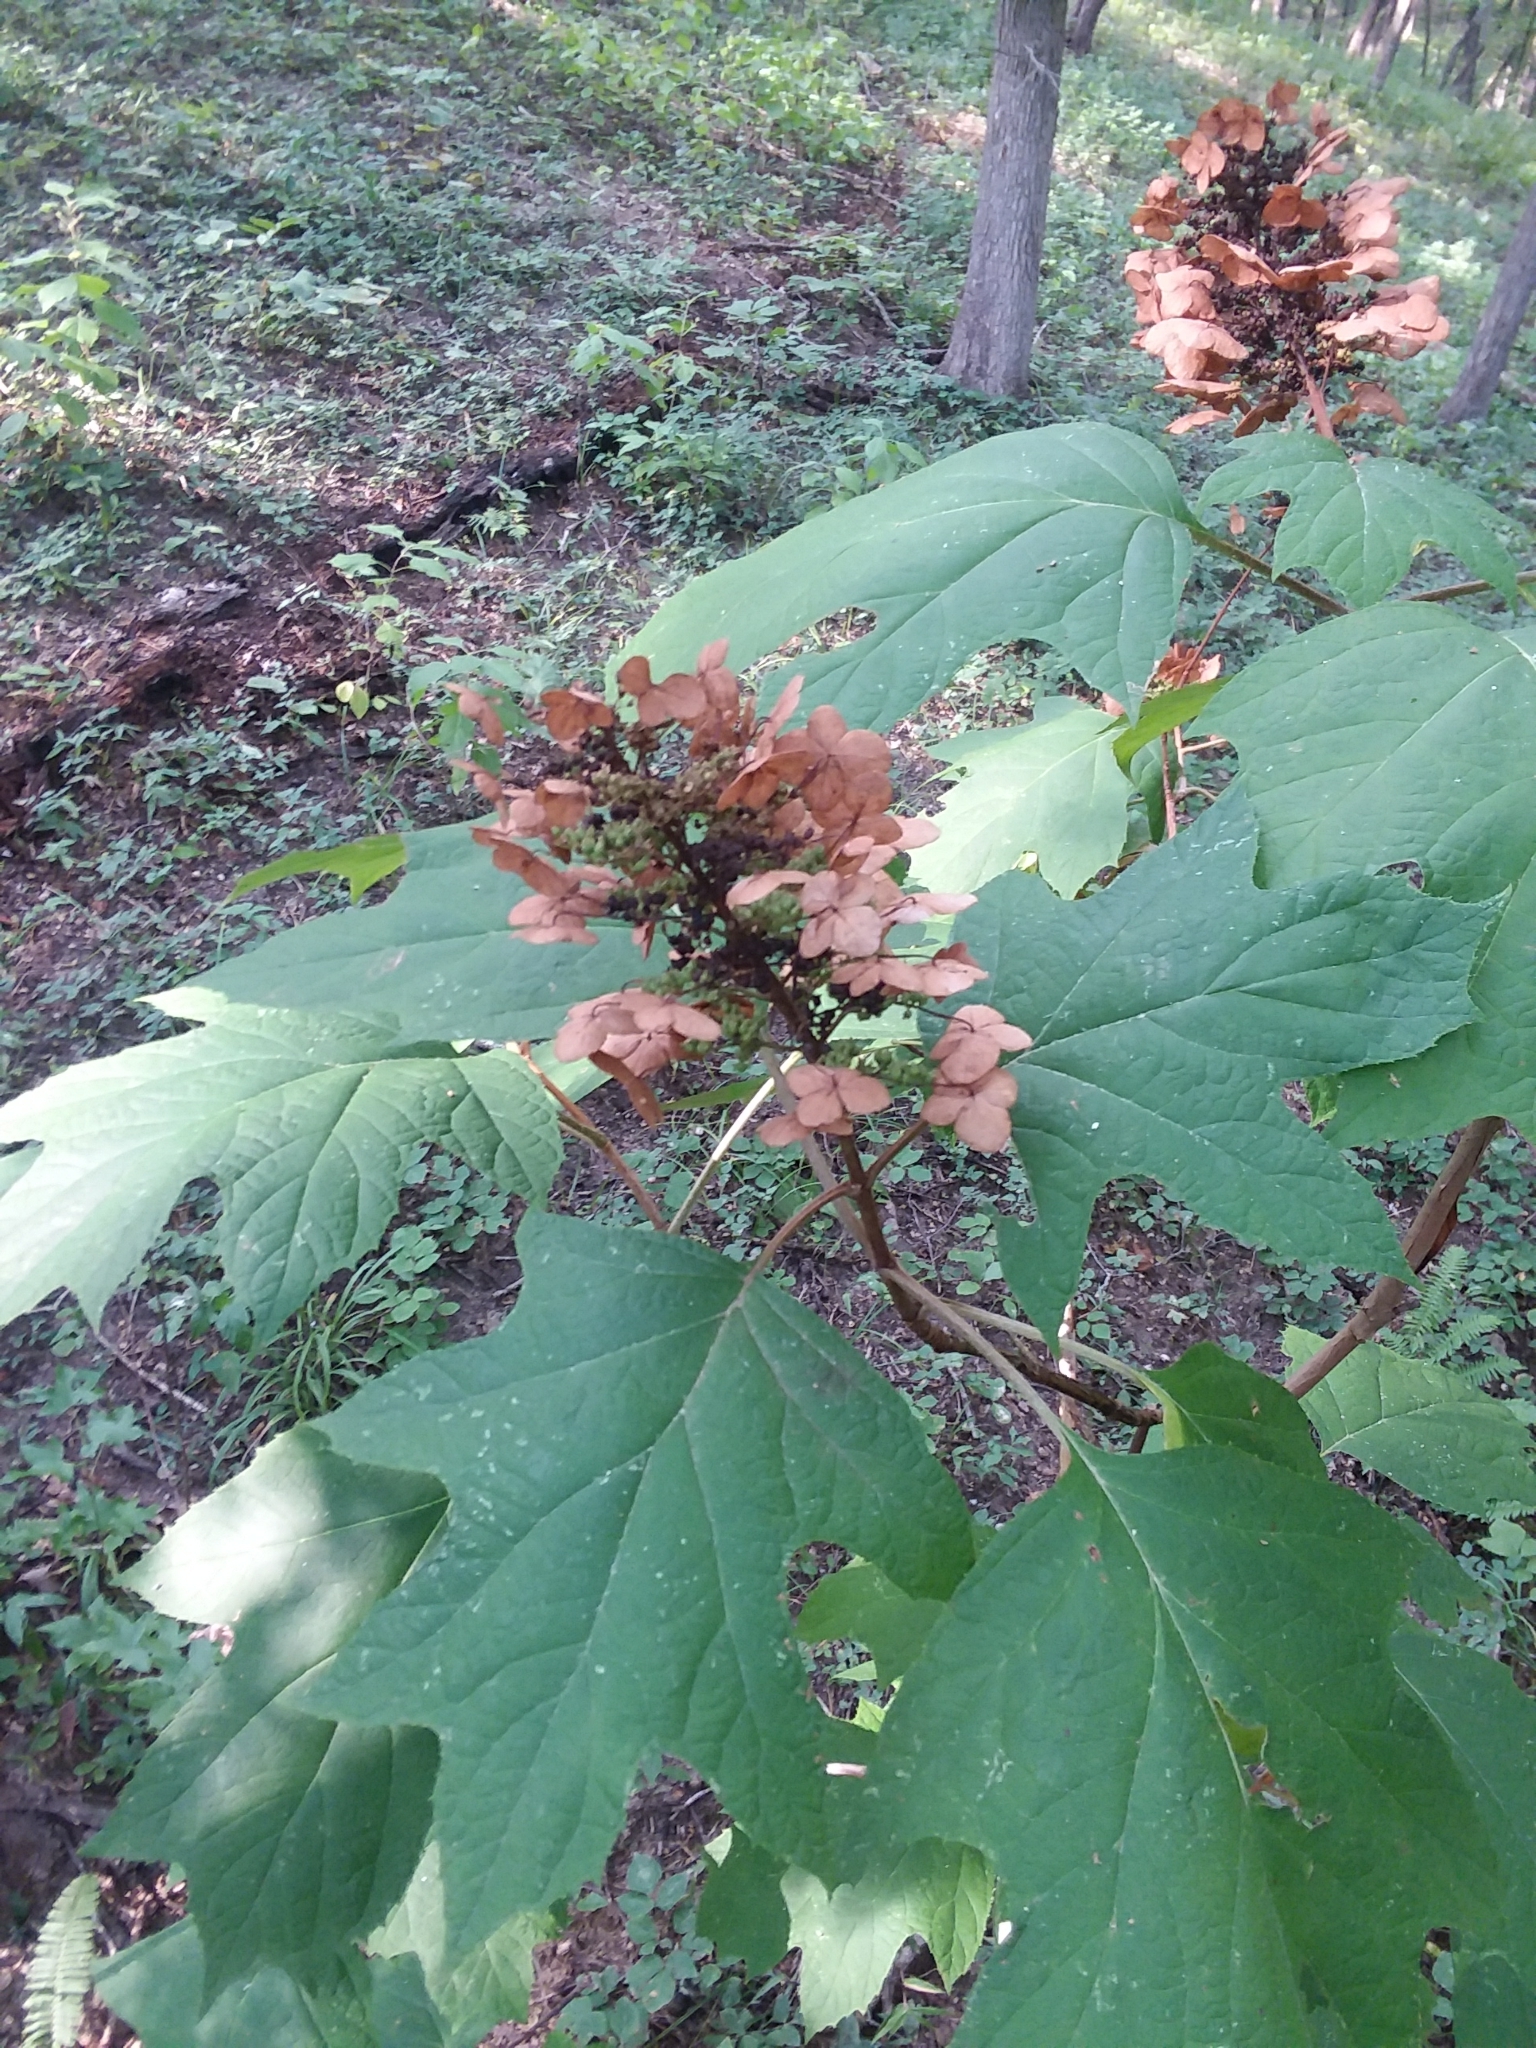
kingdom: Plantae
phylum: Tracheophyta
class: Magnoliopsida
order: Cornales
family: Hydrangeaceae
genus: Hydrangea
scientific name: Hydrangea quercifolia
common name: Oak-leaf hydrangea
